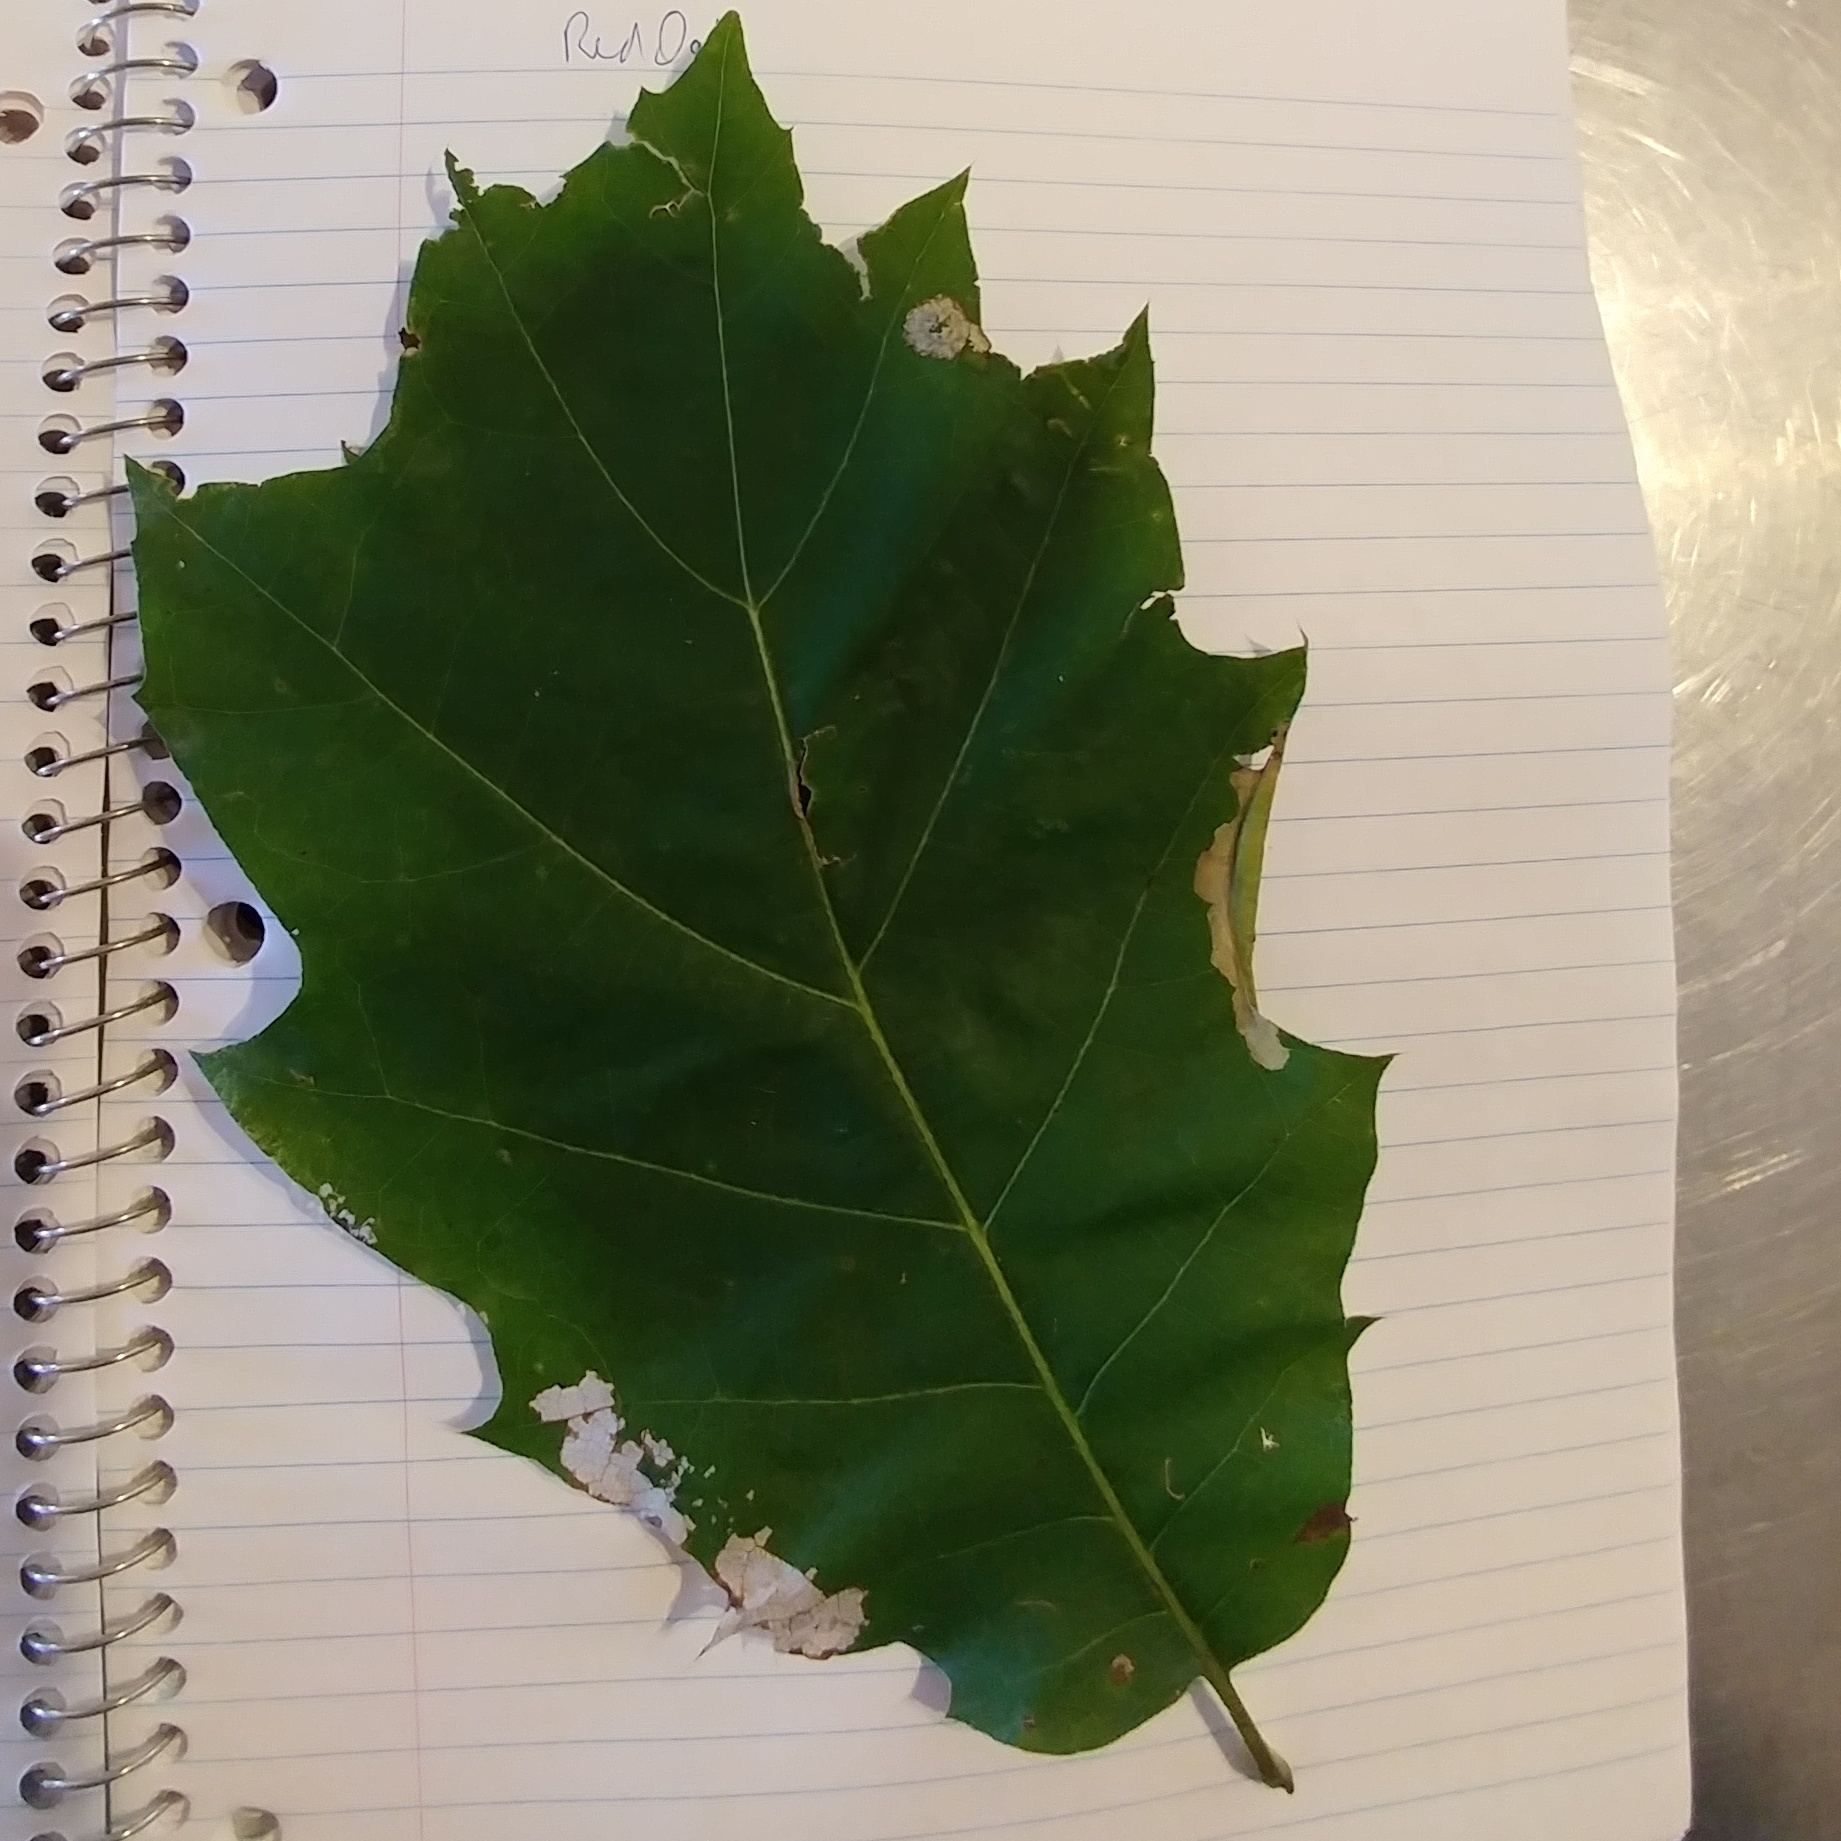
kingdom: Plantae
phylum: Tracheophyta
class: Magnoliopsida
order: Fagales
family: Fagaceae
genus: Quercus
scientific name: Quercus rubra
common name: Red oak
